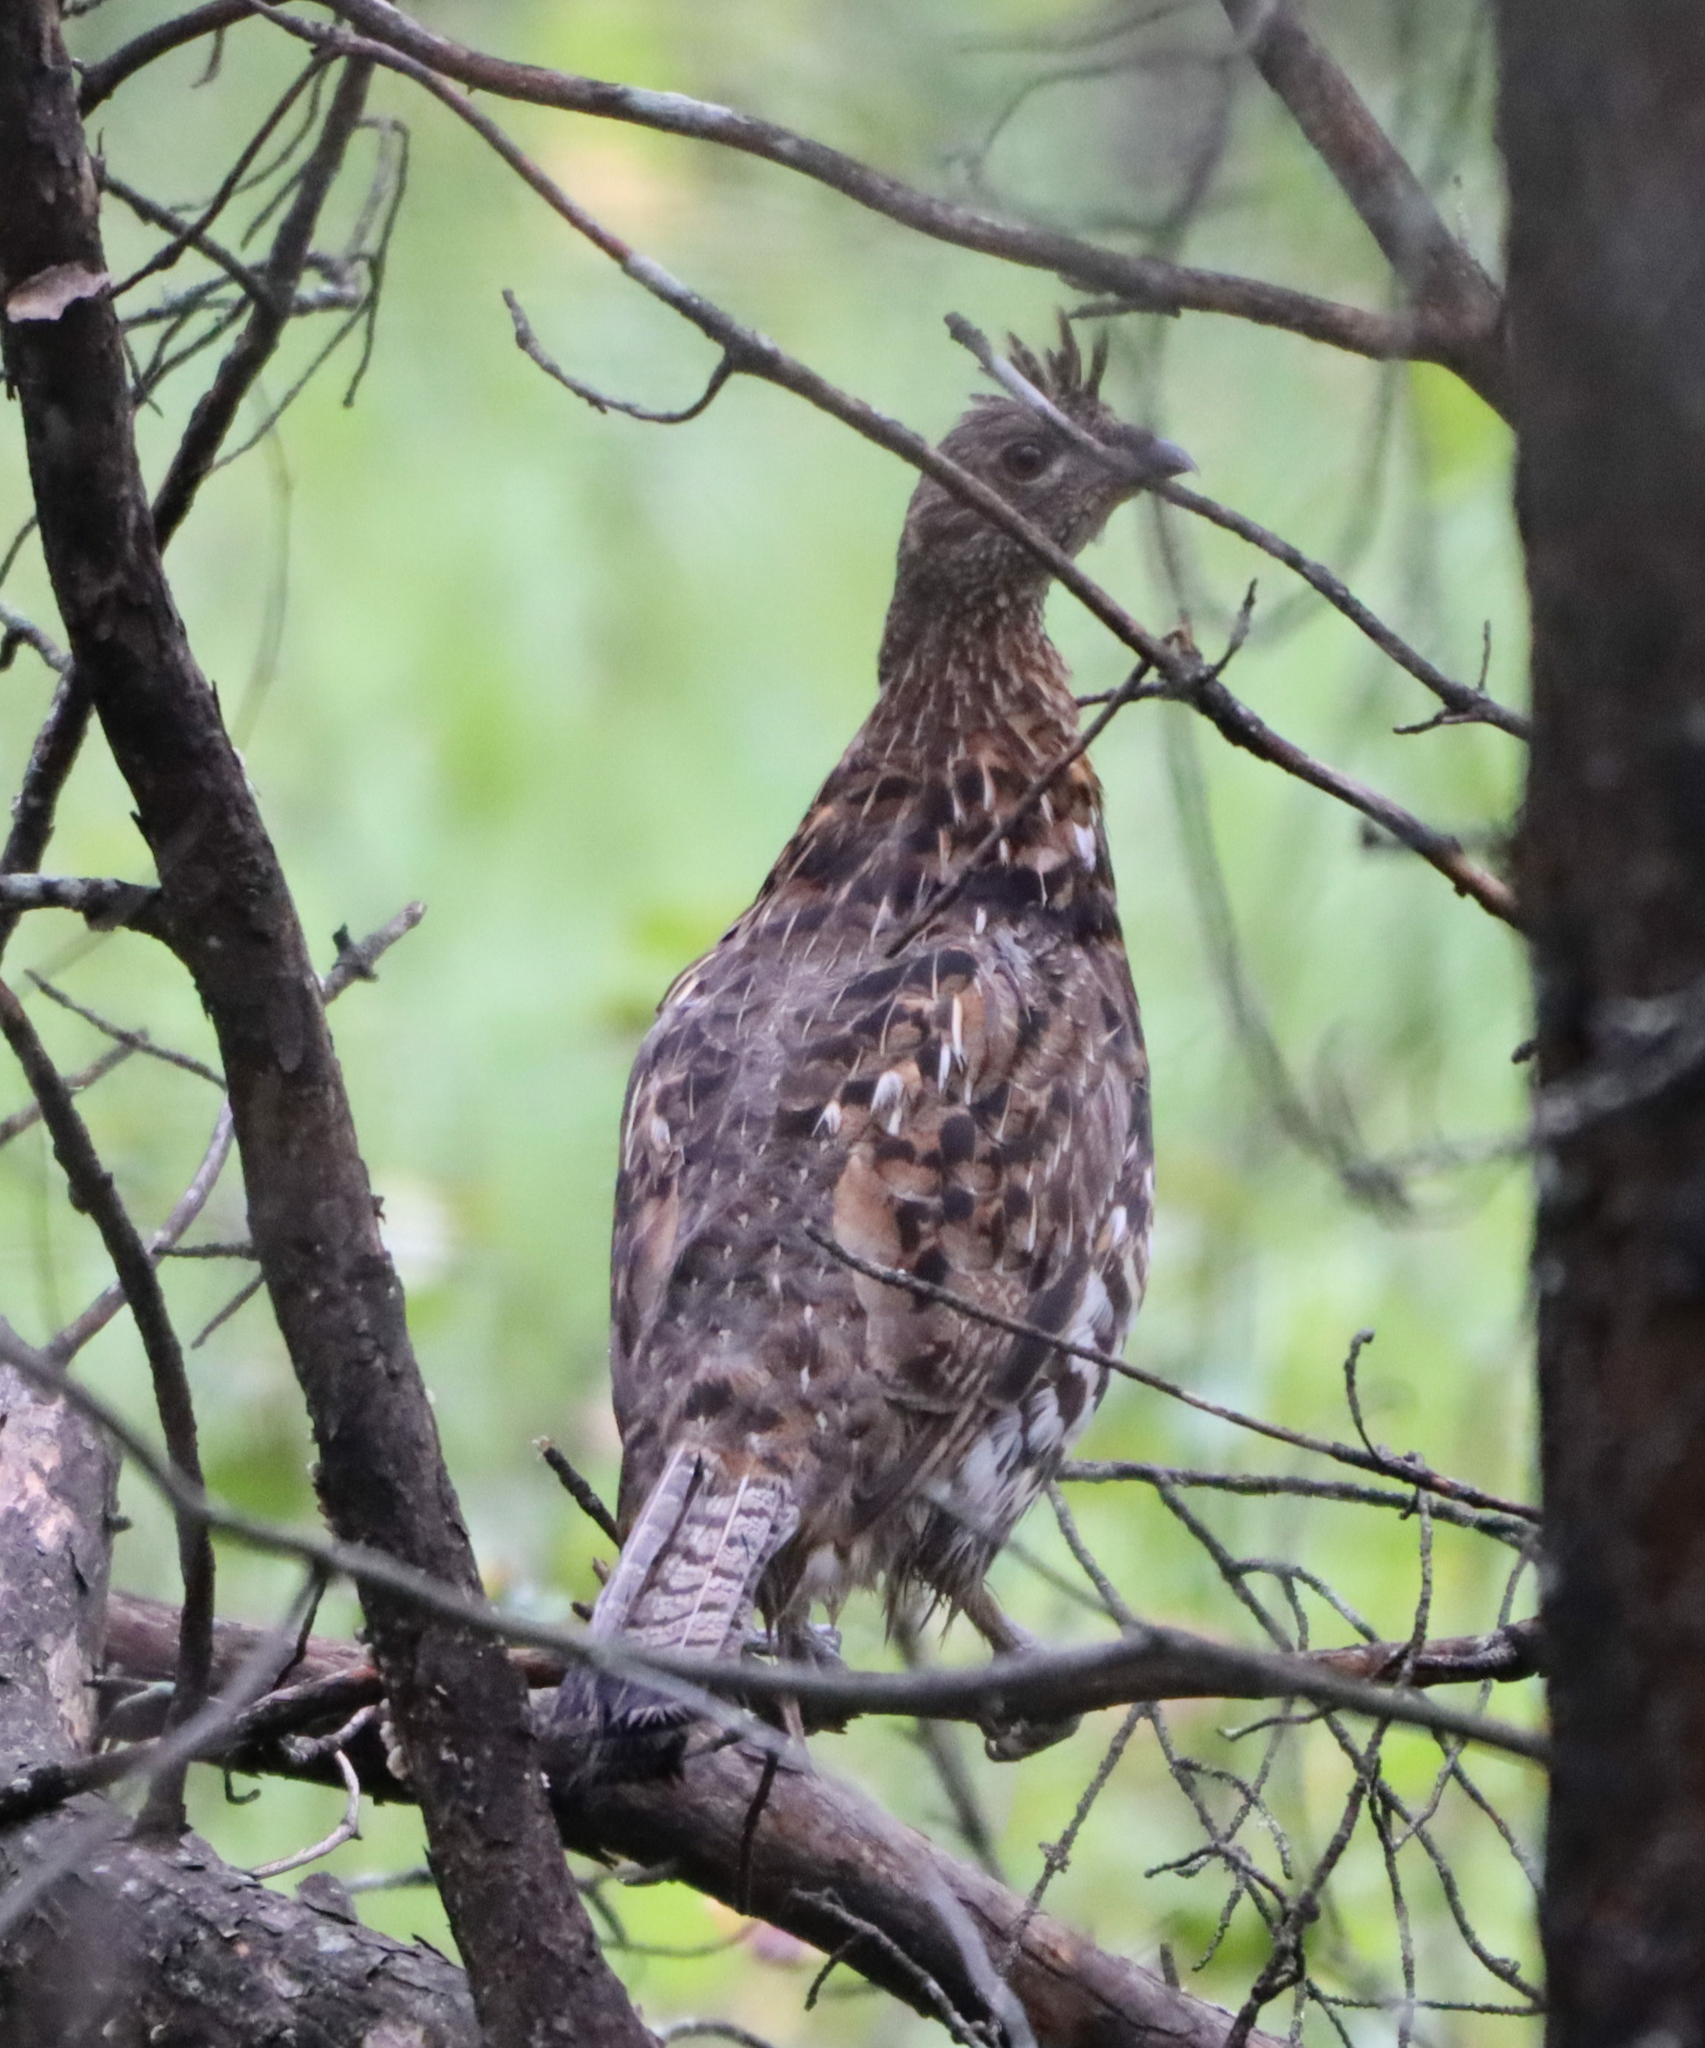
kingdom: Animalia
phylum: Chordata
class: Aves
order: Galliformes
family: Phasianidae
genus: Bonasa
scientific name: Bonasa umbellus
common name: Ruffed grouse
